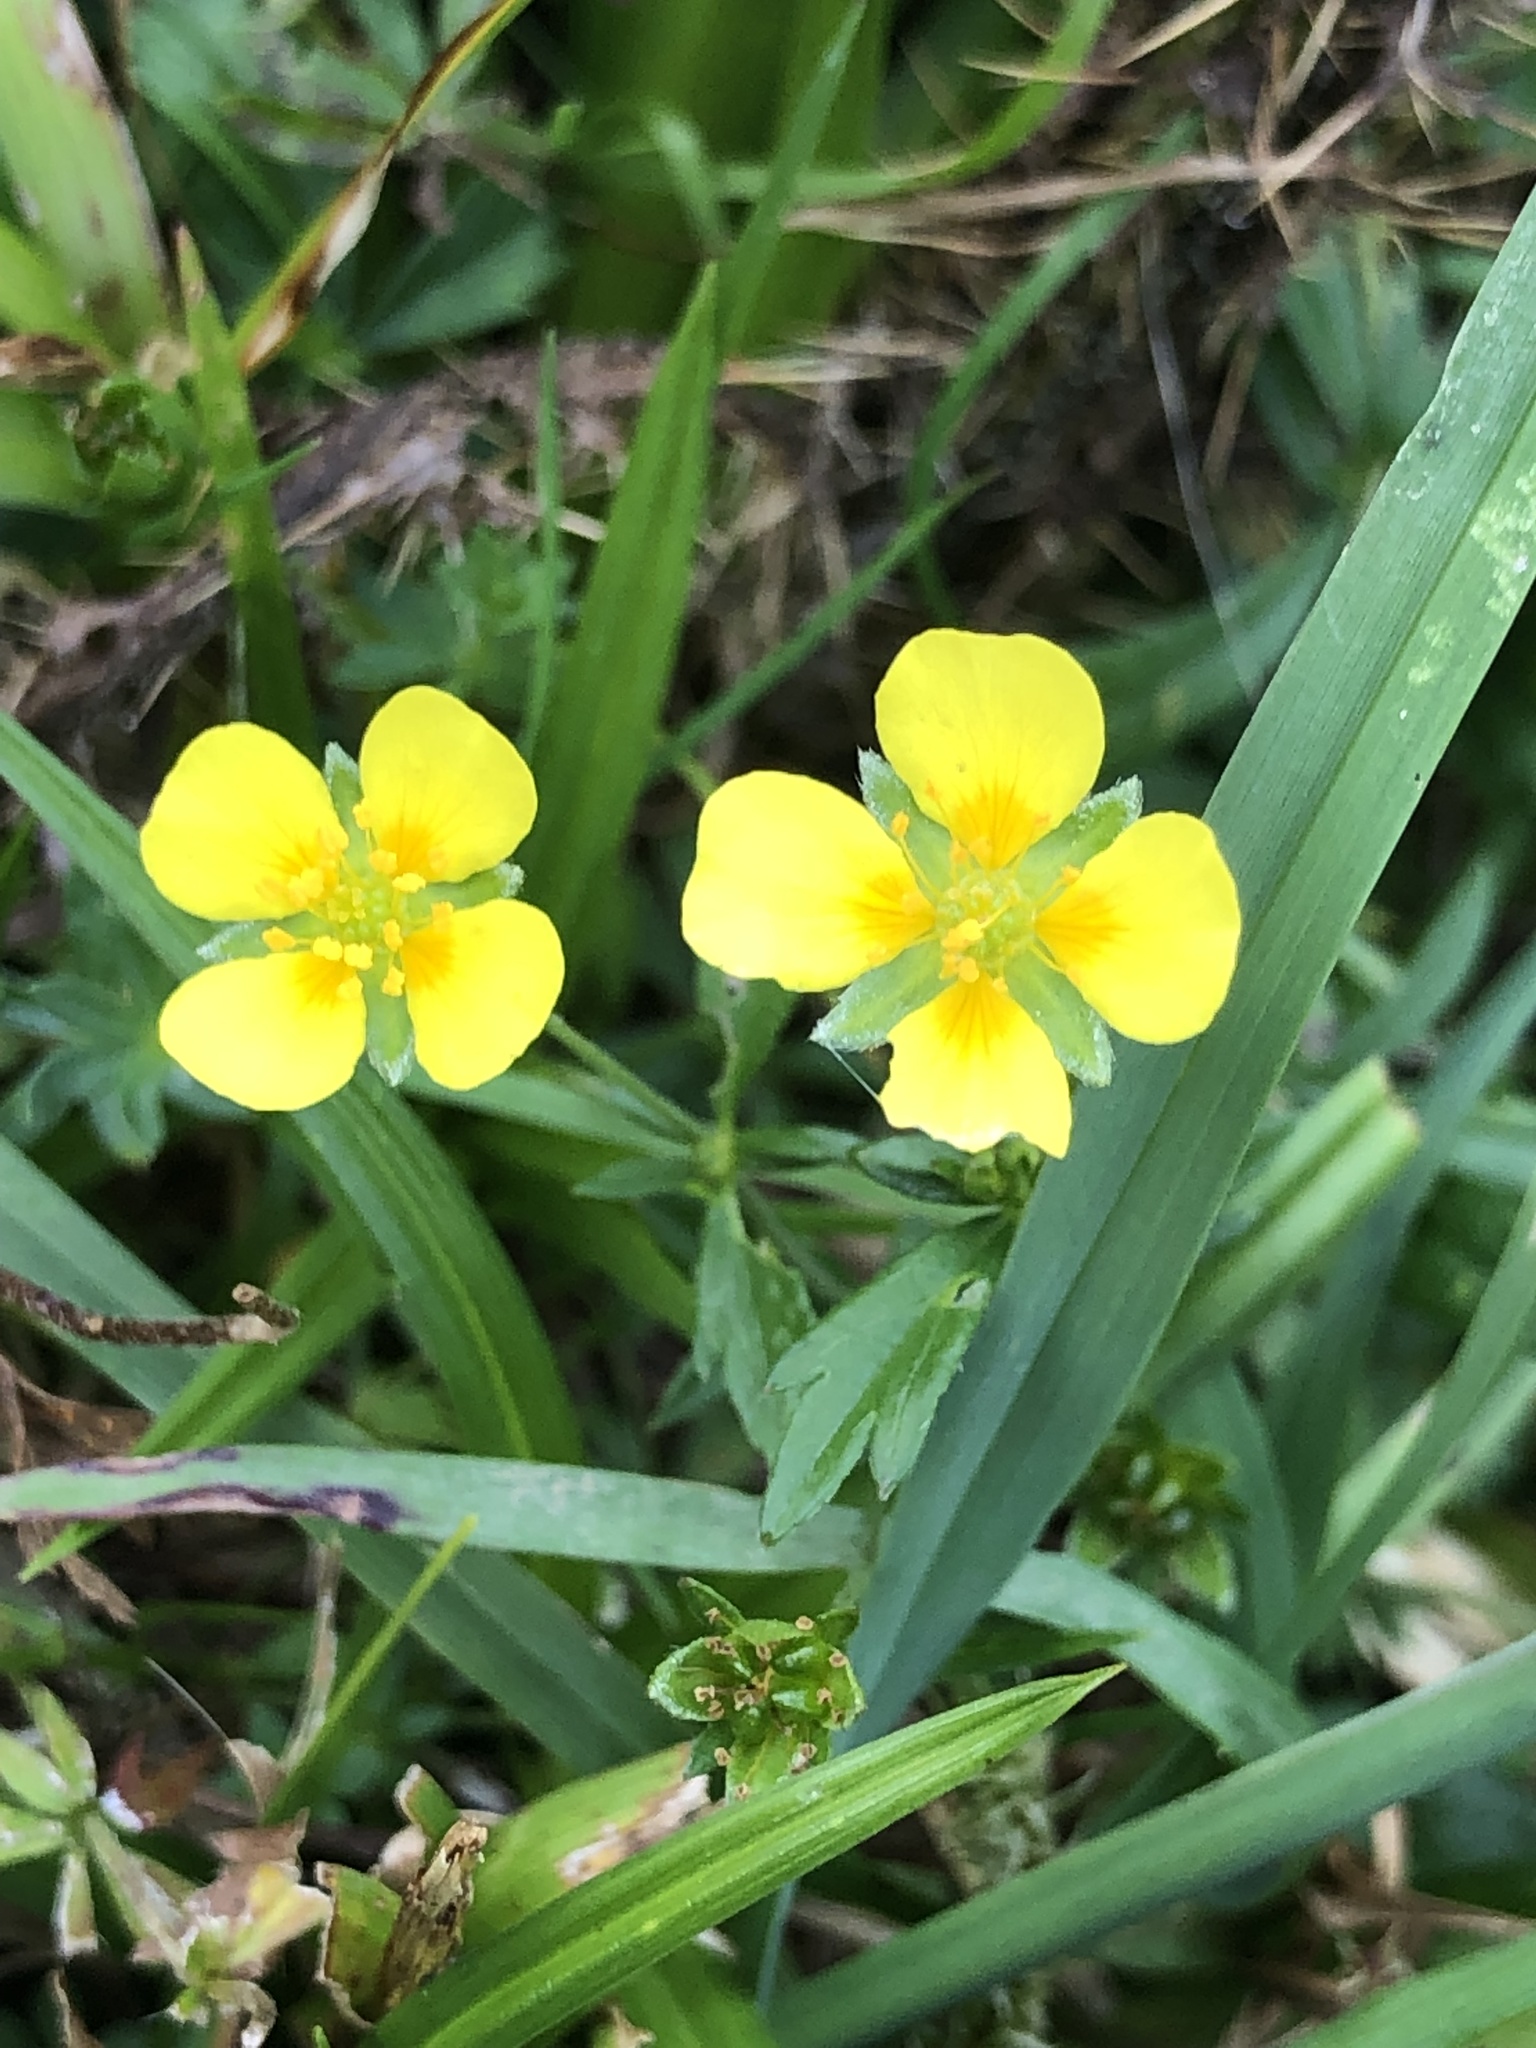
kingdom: Plantae
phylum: Tracheophyta
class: Magnoliopsida
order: Rosales
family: Rosaceae
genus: Potentilla
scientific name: Potentilla erecta
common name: Tormentil
